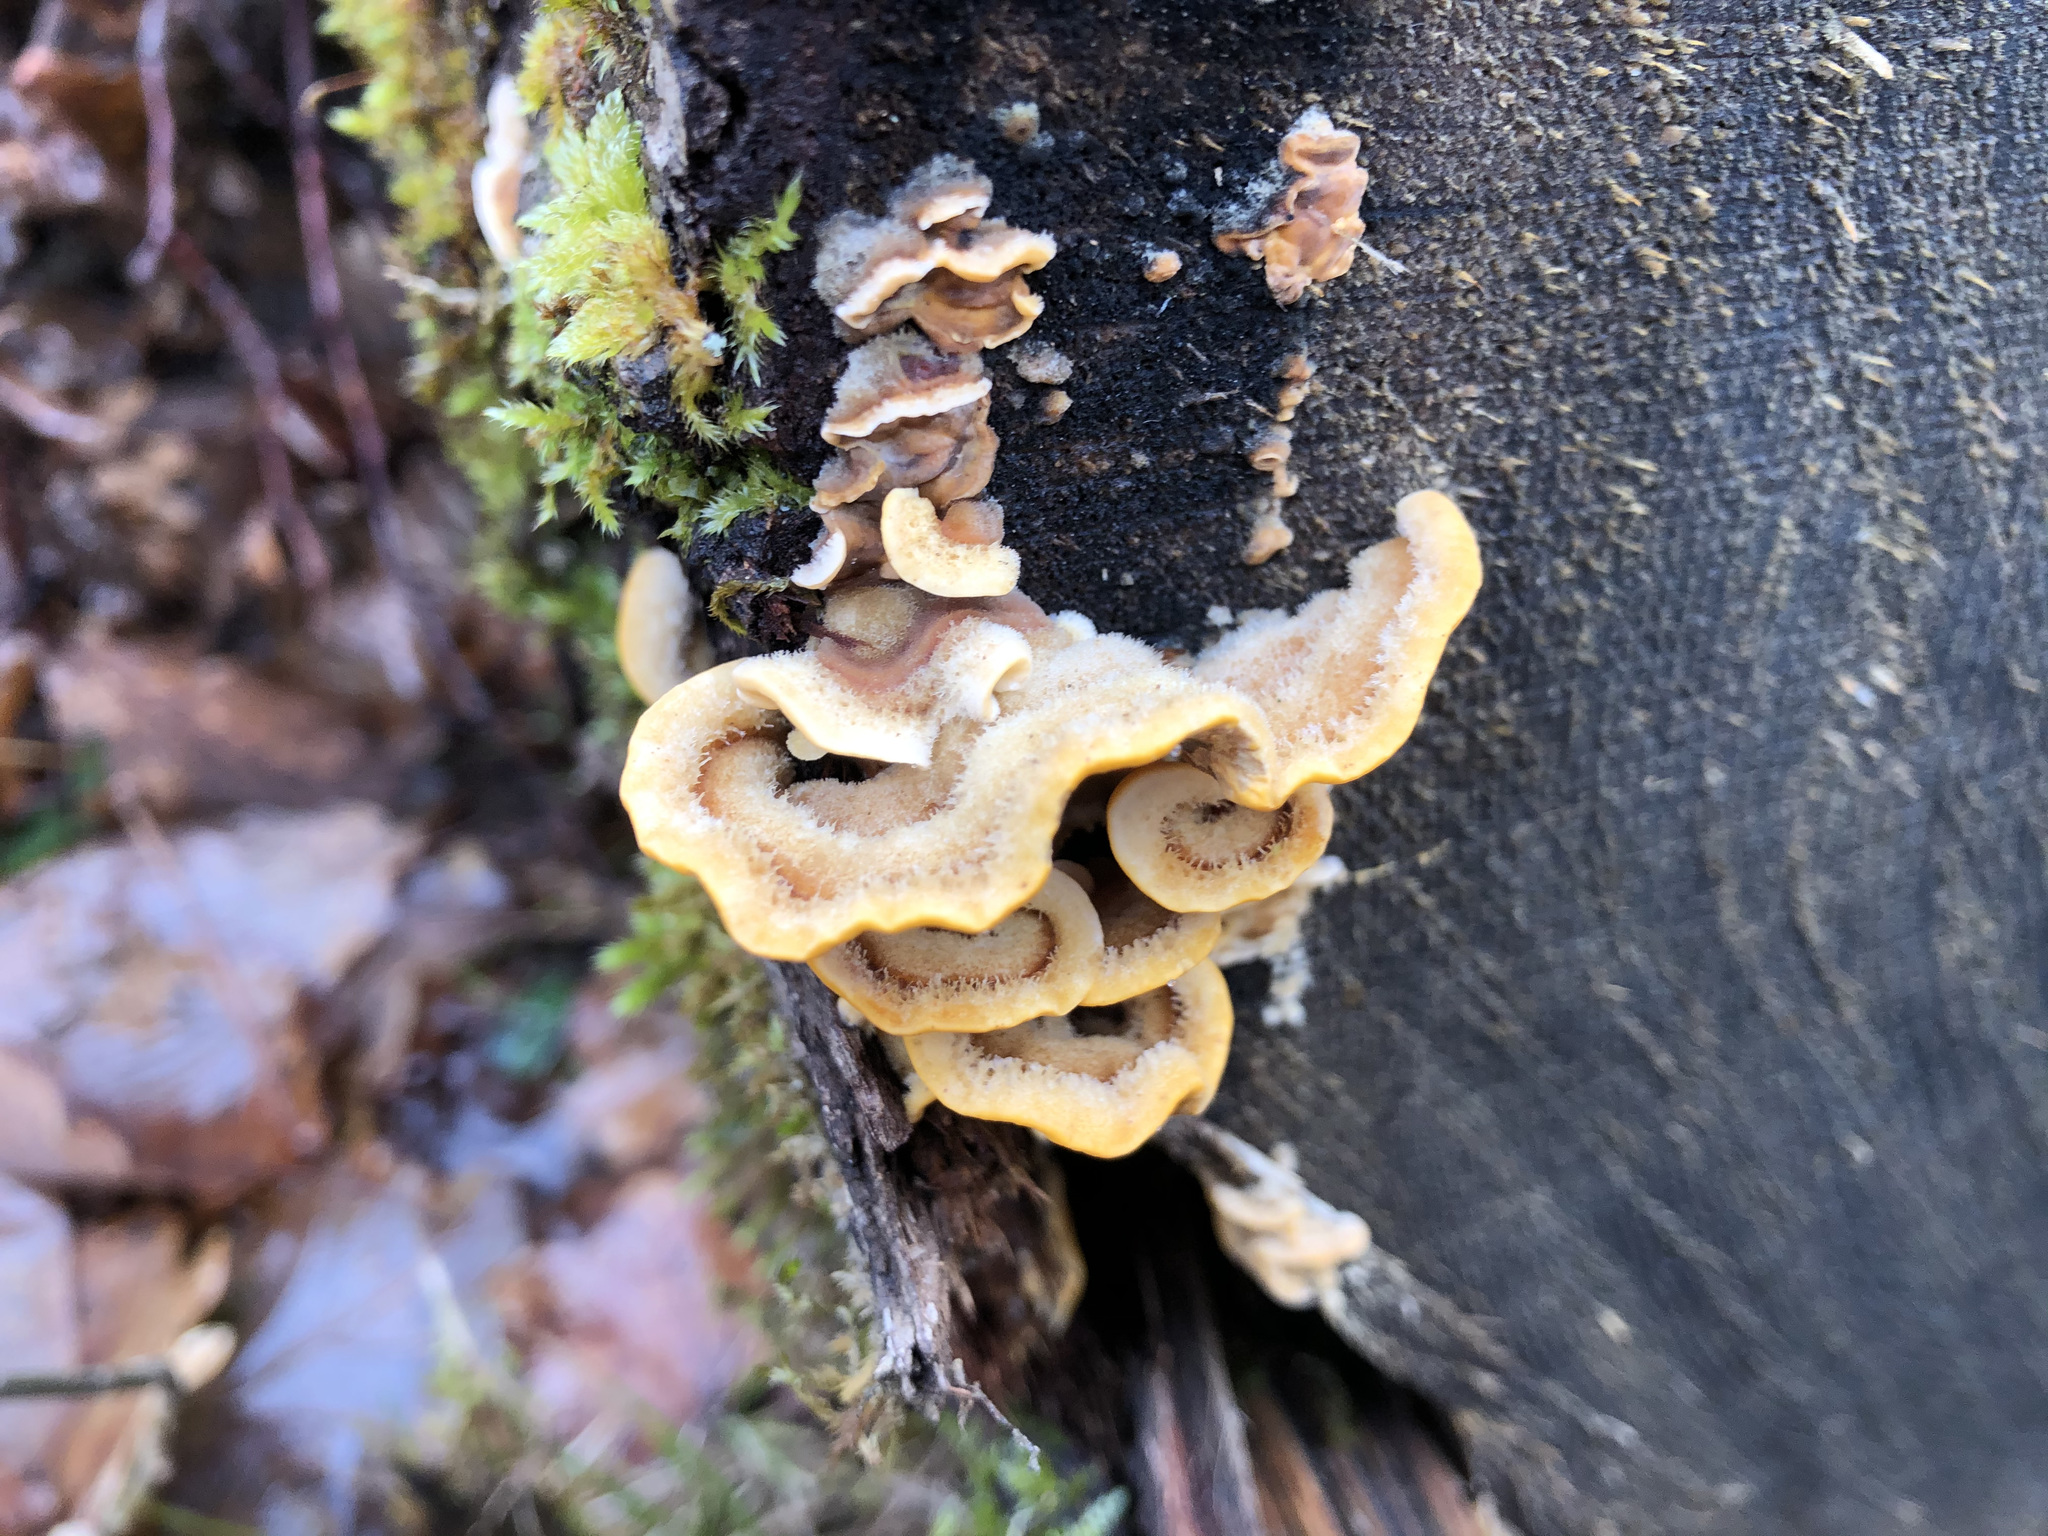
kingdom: Fungi
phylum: Basidiomycota
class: Agaricomycetes
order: Russulales
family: Stereaceae
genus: Stereum
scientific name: Stereum hirsutum
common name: Hairy curtain crust
